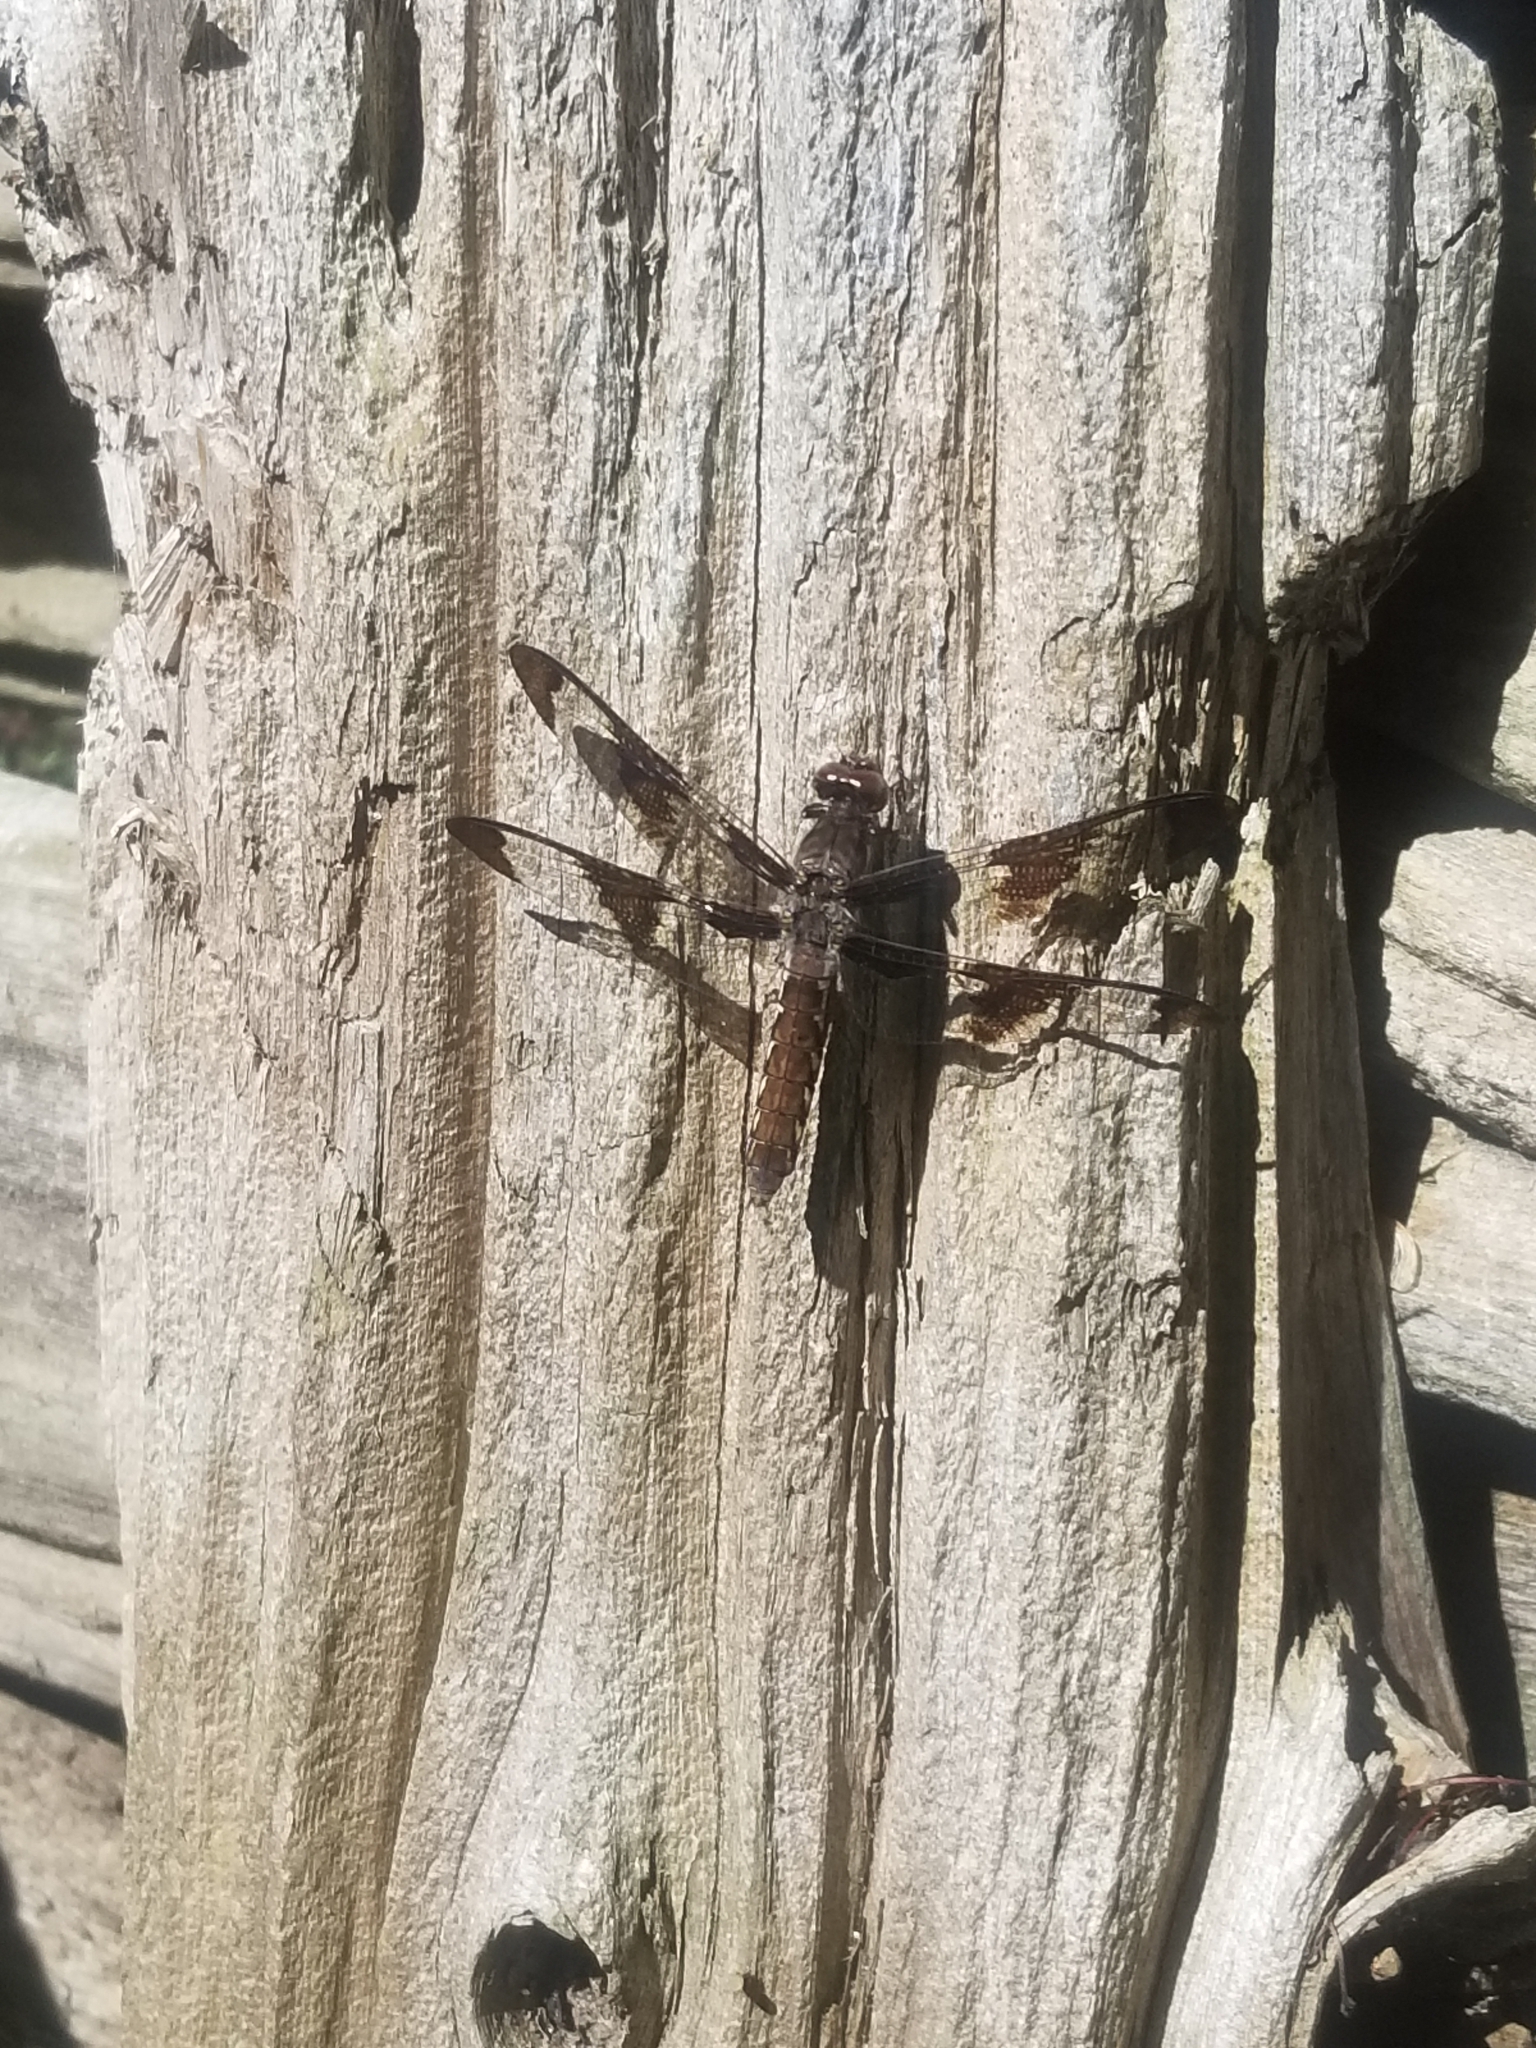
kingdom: Animalia
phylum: Arthropoda
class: Insecta
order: Odonata
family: Libellulidae
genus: Plathemis
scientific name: Plathemis lydia
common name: Common whitetail
